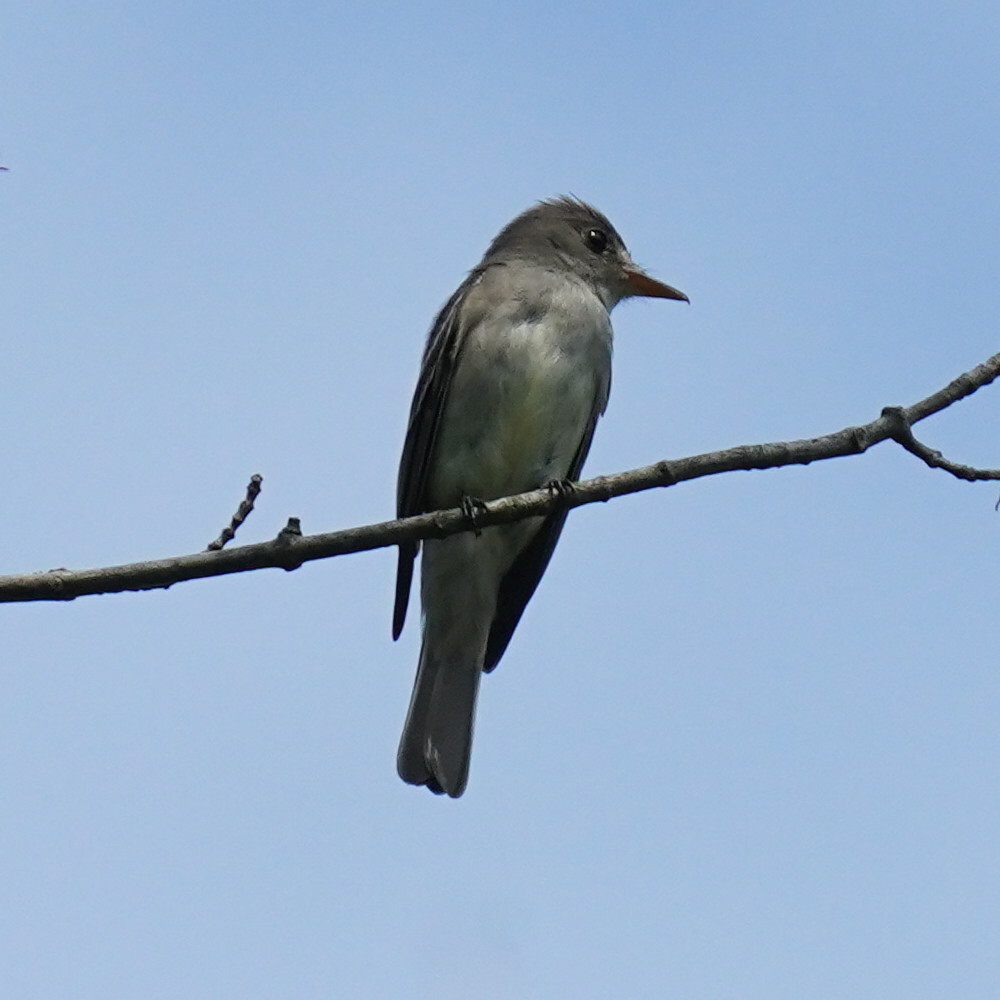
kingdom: Animalia
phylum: Chordata
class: Aves
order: Passeriformes
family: Tyrannidae
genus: Contopus
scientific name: Contopus virens
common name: Eastern wood-pewee
